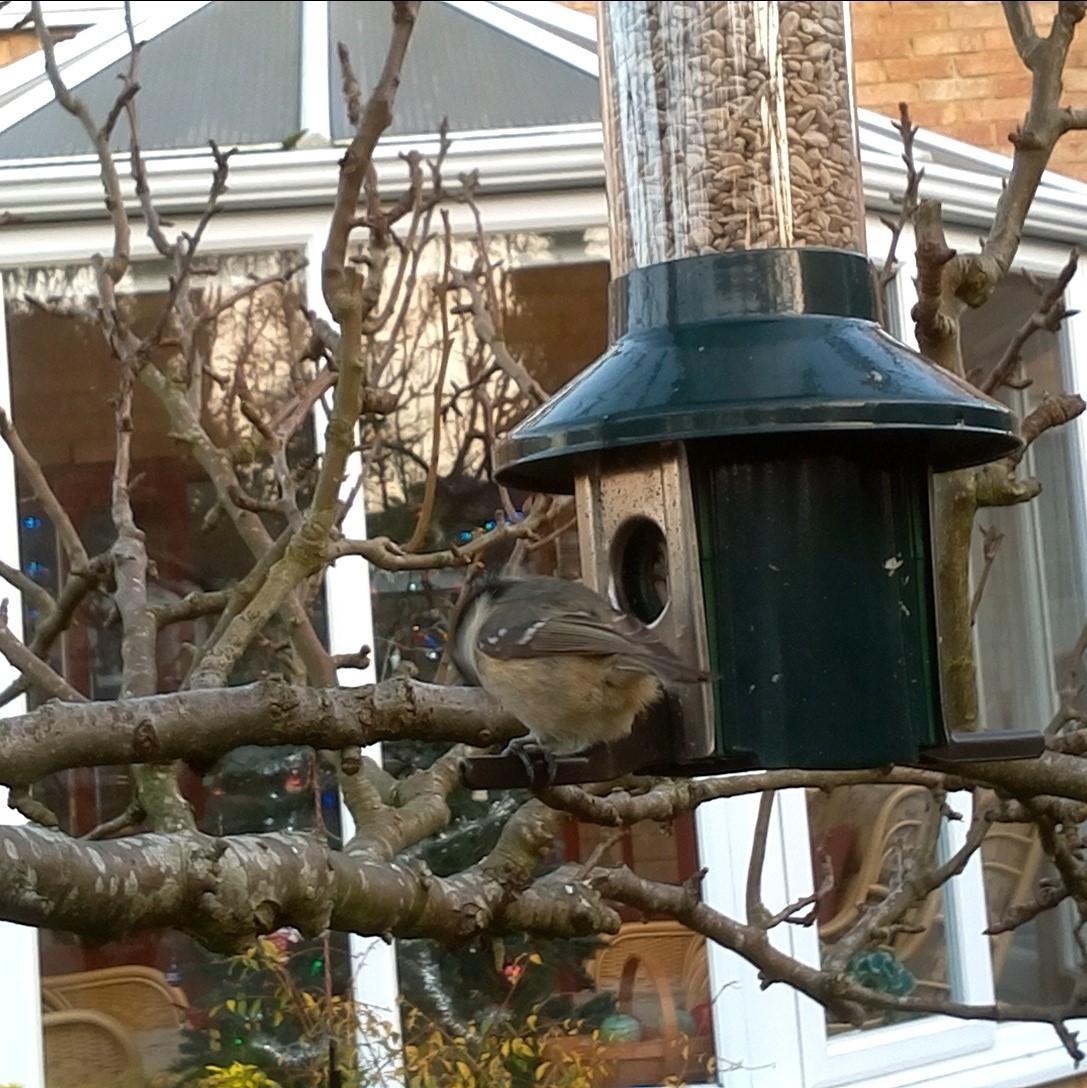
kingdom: Animalia
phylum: Chordata
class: Aves
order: Passeriformes
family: Paridae
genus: Periparus
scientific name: Periparus ater
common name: Coal tit
